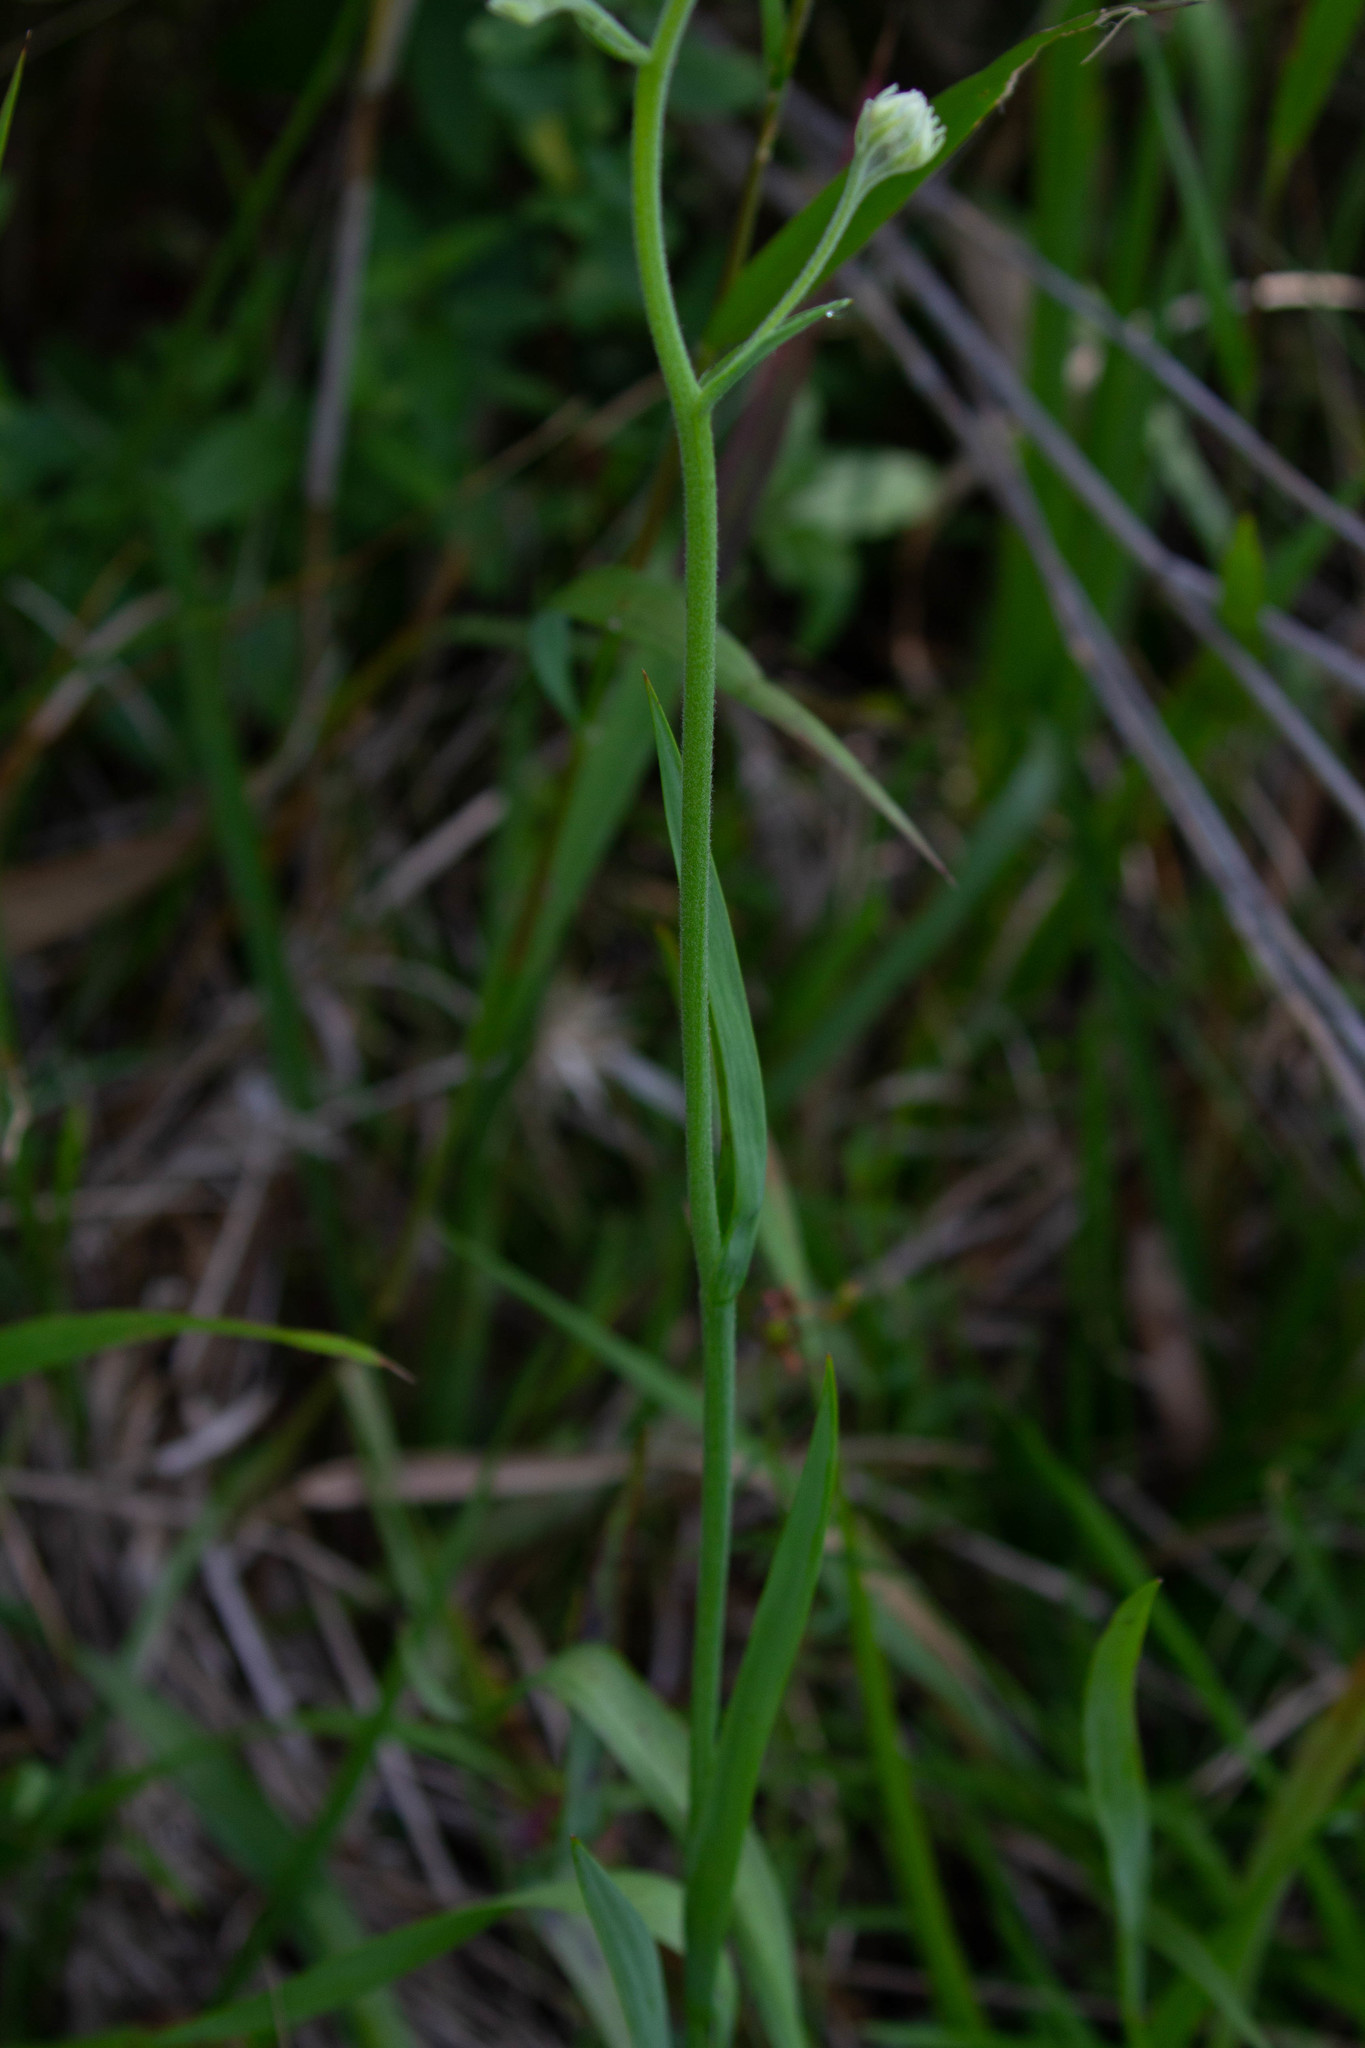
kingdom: Plantae
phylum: Tracheophyta
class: Liliopsida
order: Commelinales
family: Haemodoraceae
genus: Lachnanthes
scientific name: Lachnanthes caroliana
